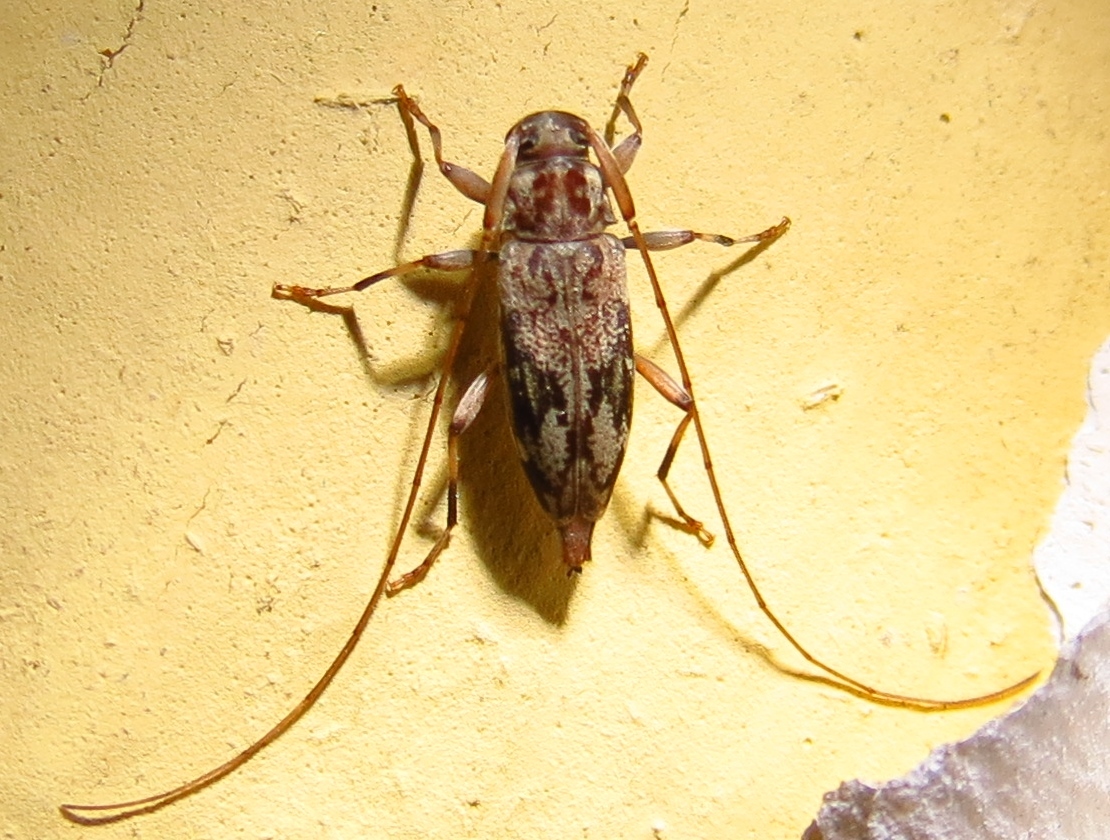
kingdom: Animalia
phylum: Arthropoda
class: Insecta
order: Coleoptera
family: Cerambycidae
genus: Lepturges
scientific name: Lepturges angulatus
